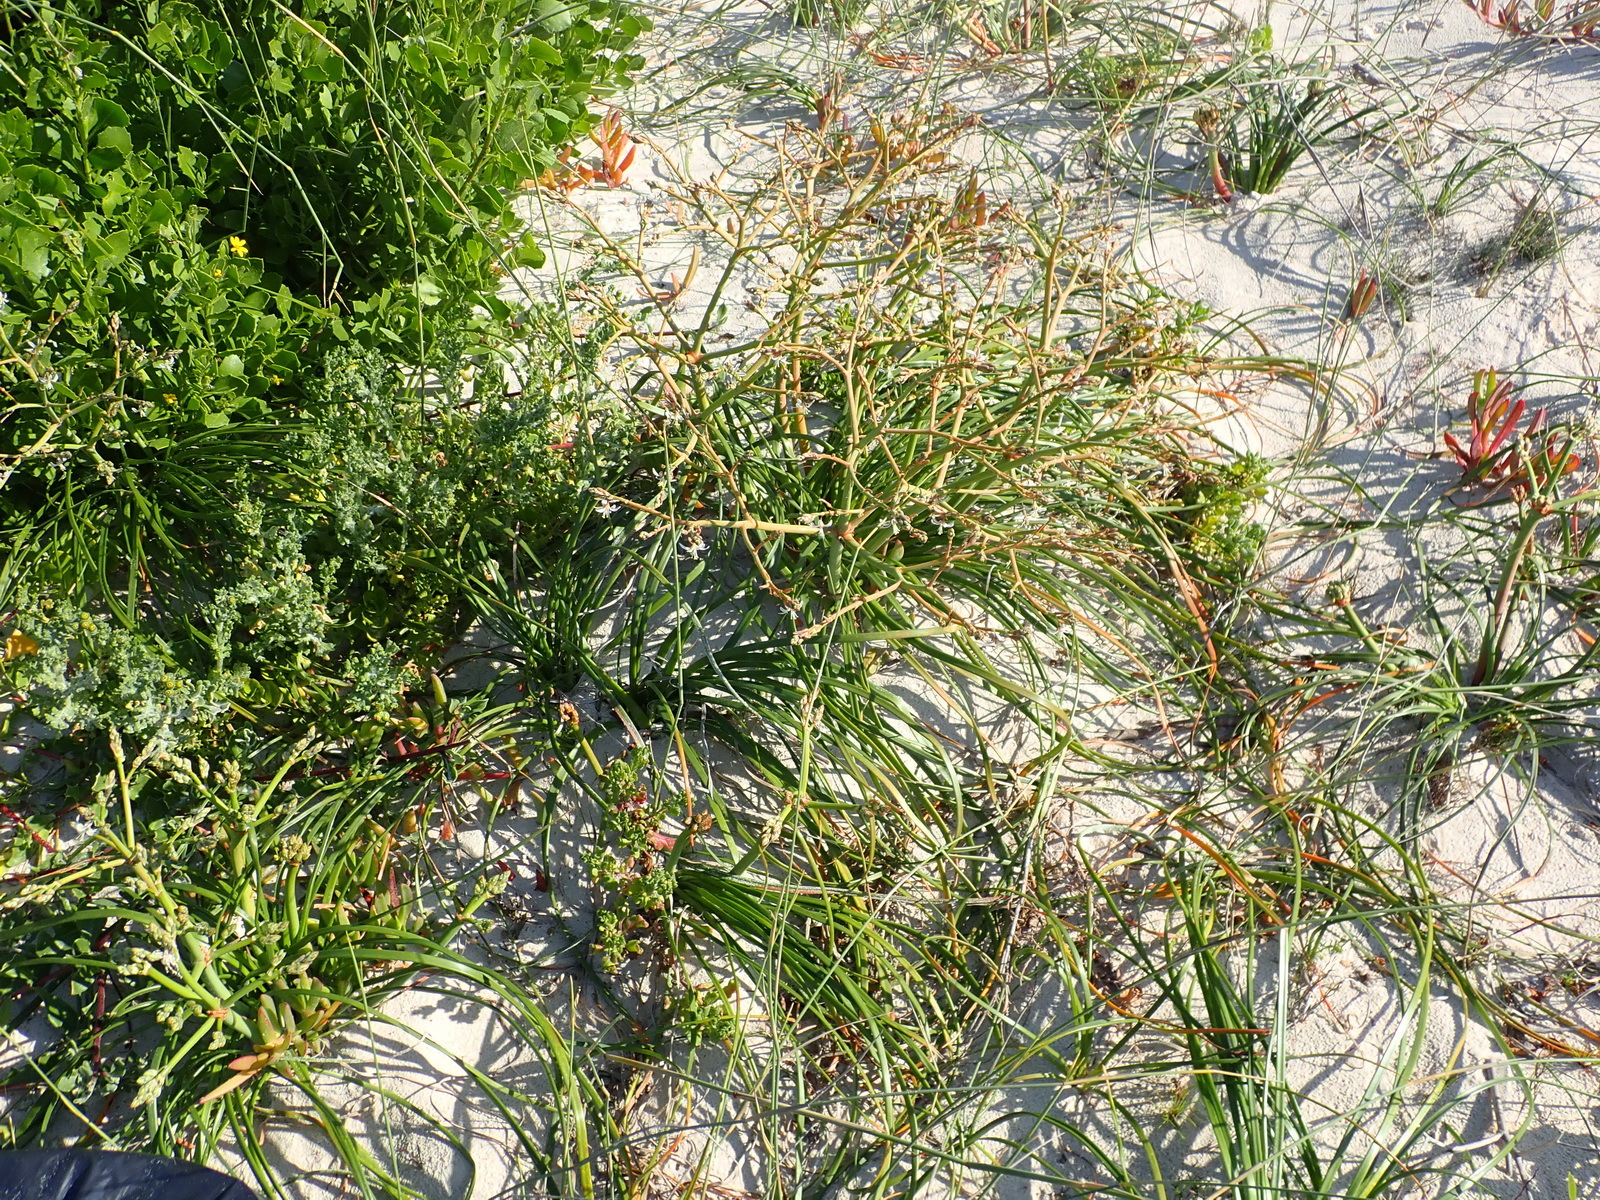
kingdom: Plantae
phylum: Tracheophyta
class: Liliopsida
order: Asparagales
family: Asphodelaceae
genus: Trachyandra
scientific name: Trachyandra divaricata
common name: Dune onionweed
